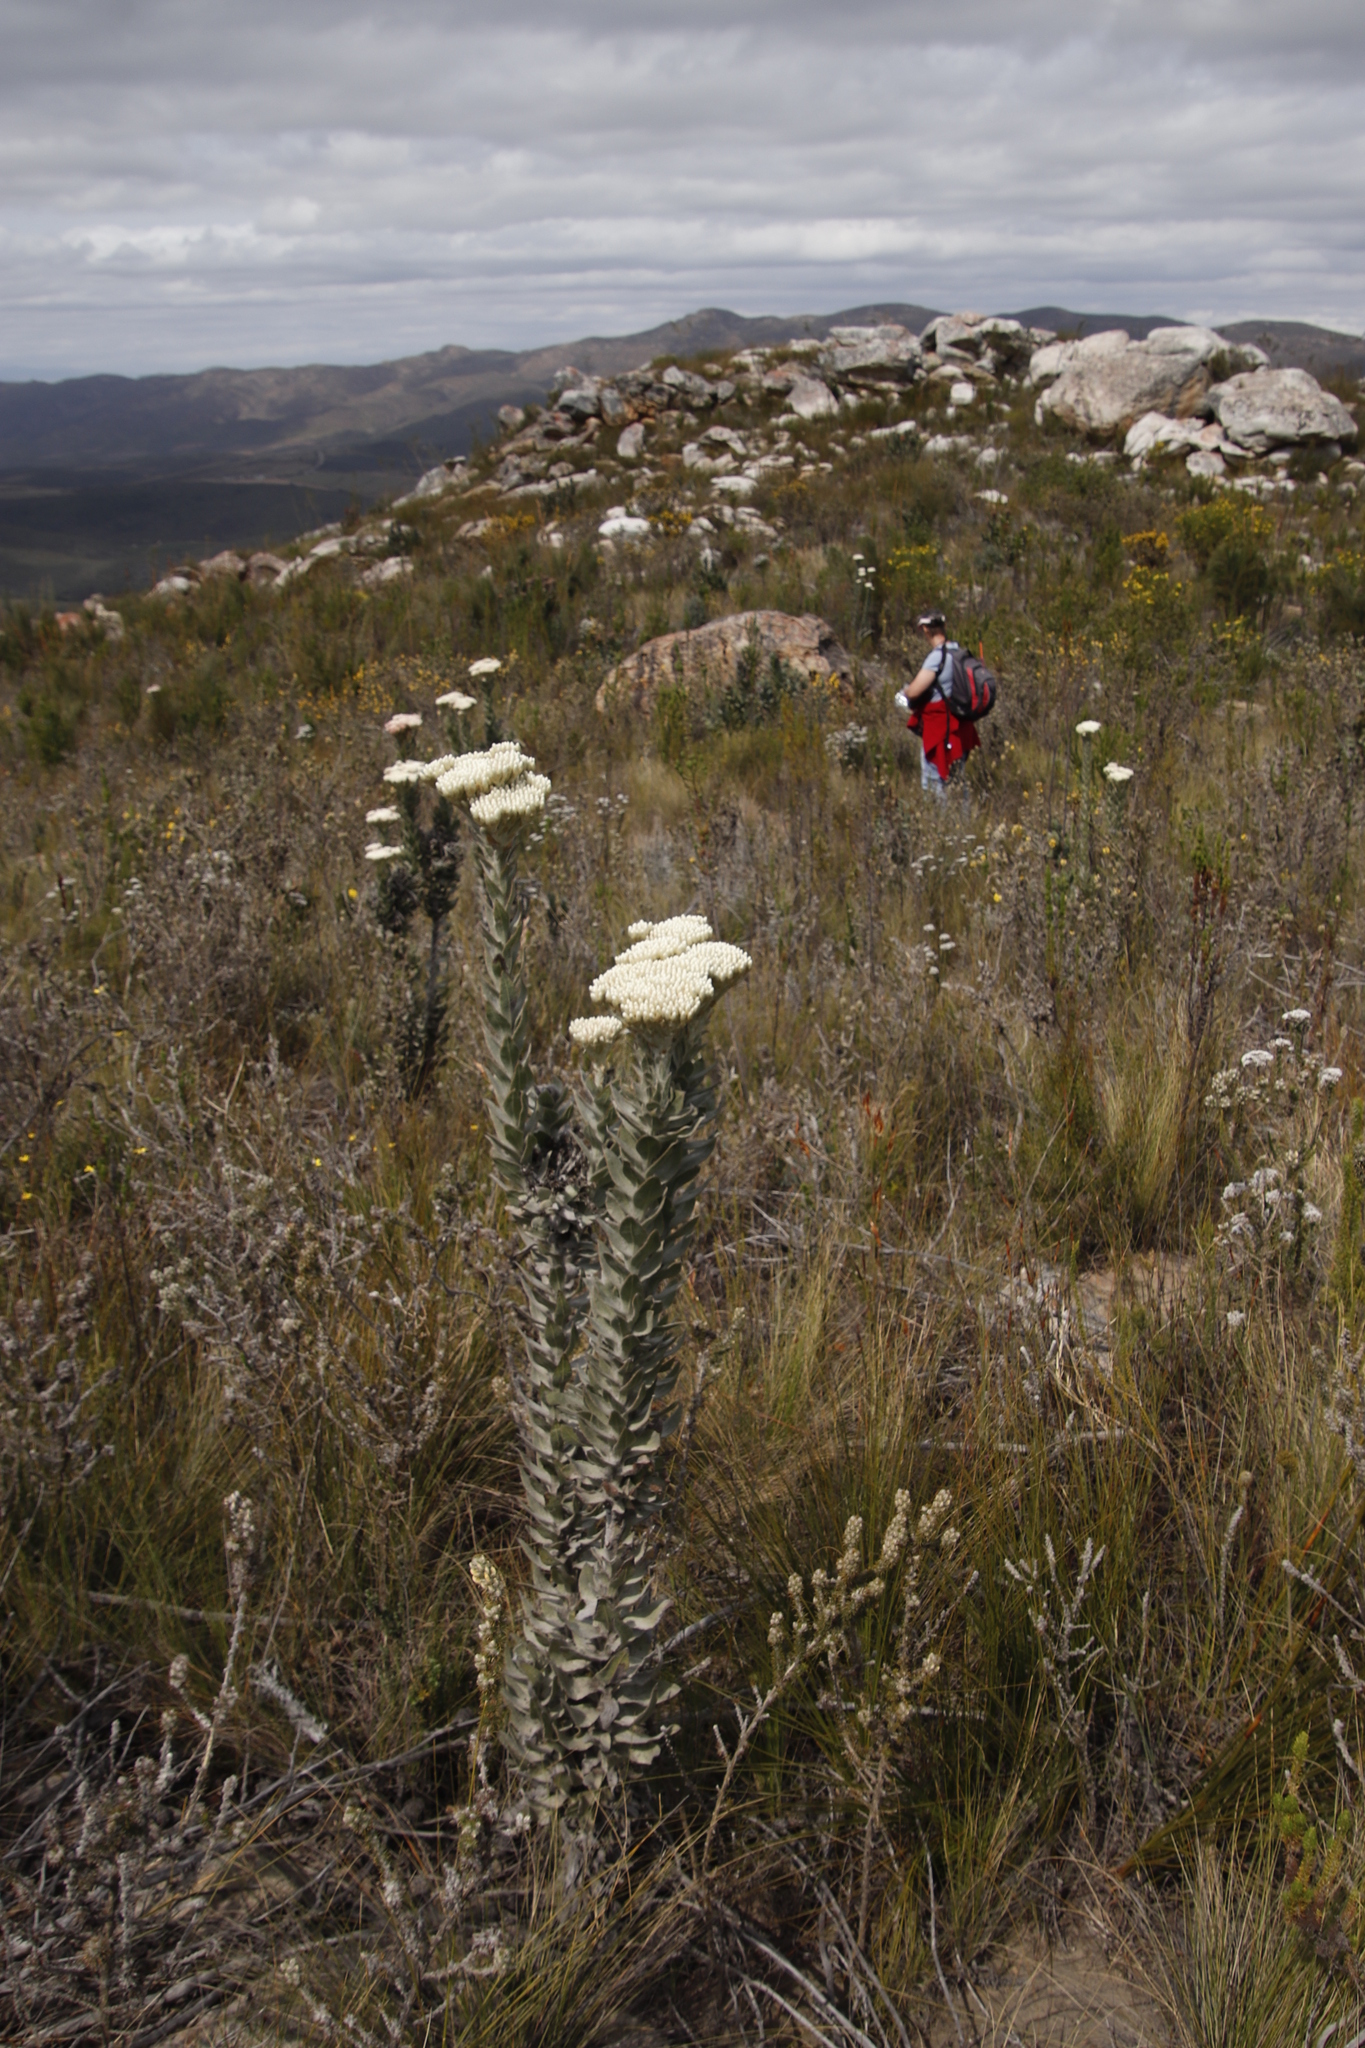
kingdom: Plantae
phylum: Tracheophyta
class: Magnoliopsida
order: Asterales
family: Asteraceae
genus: Syncarpha
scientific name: Syncarpha milleflora
